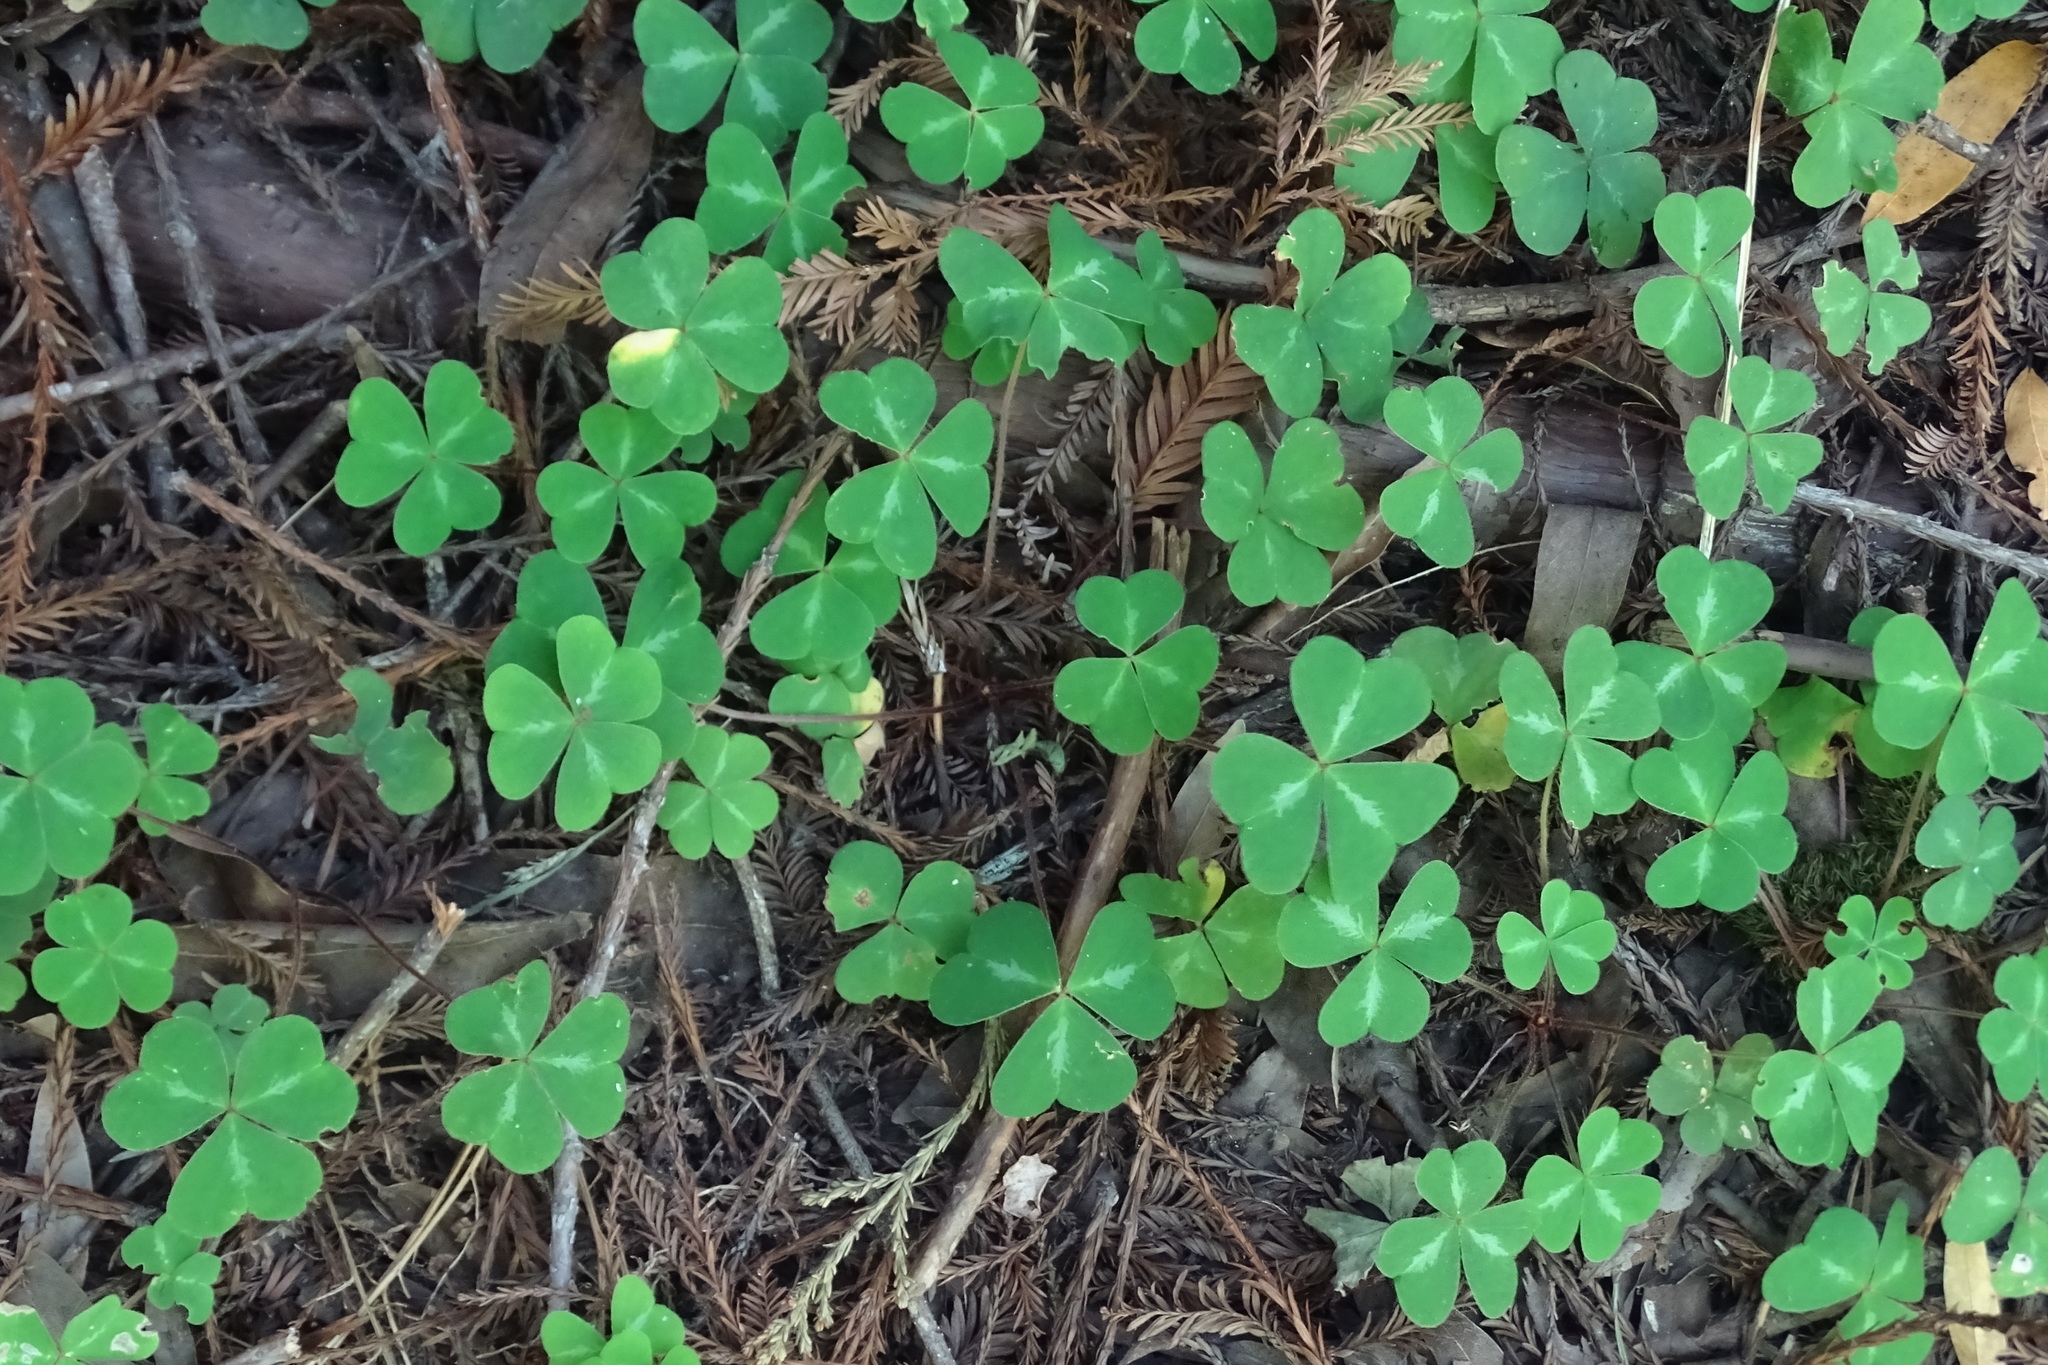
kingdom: Plantae
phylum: Tracheophyta
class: Magnoliopsida
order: Oxalidales
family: Oxalidaceae
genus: Oxalis
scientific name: Oxalis oregana
